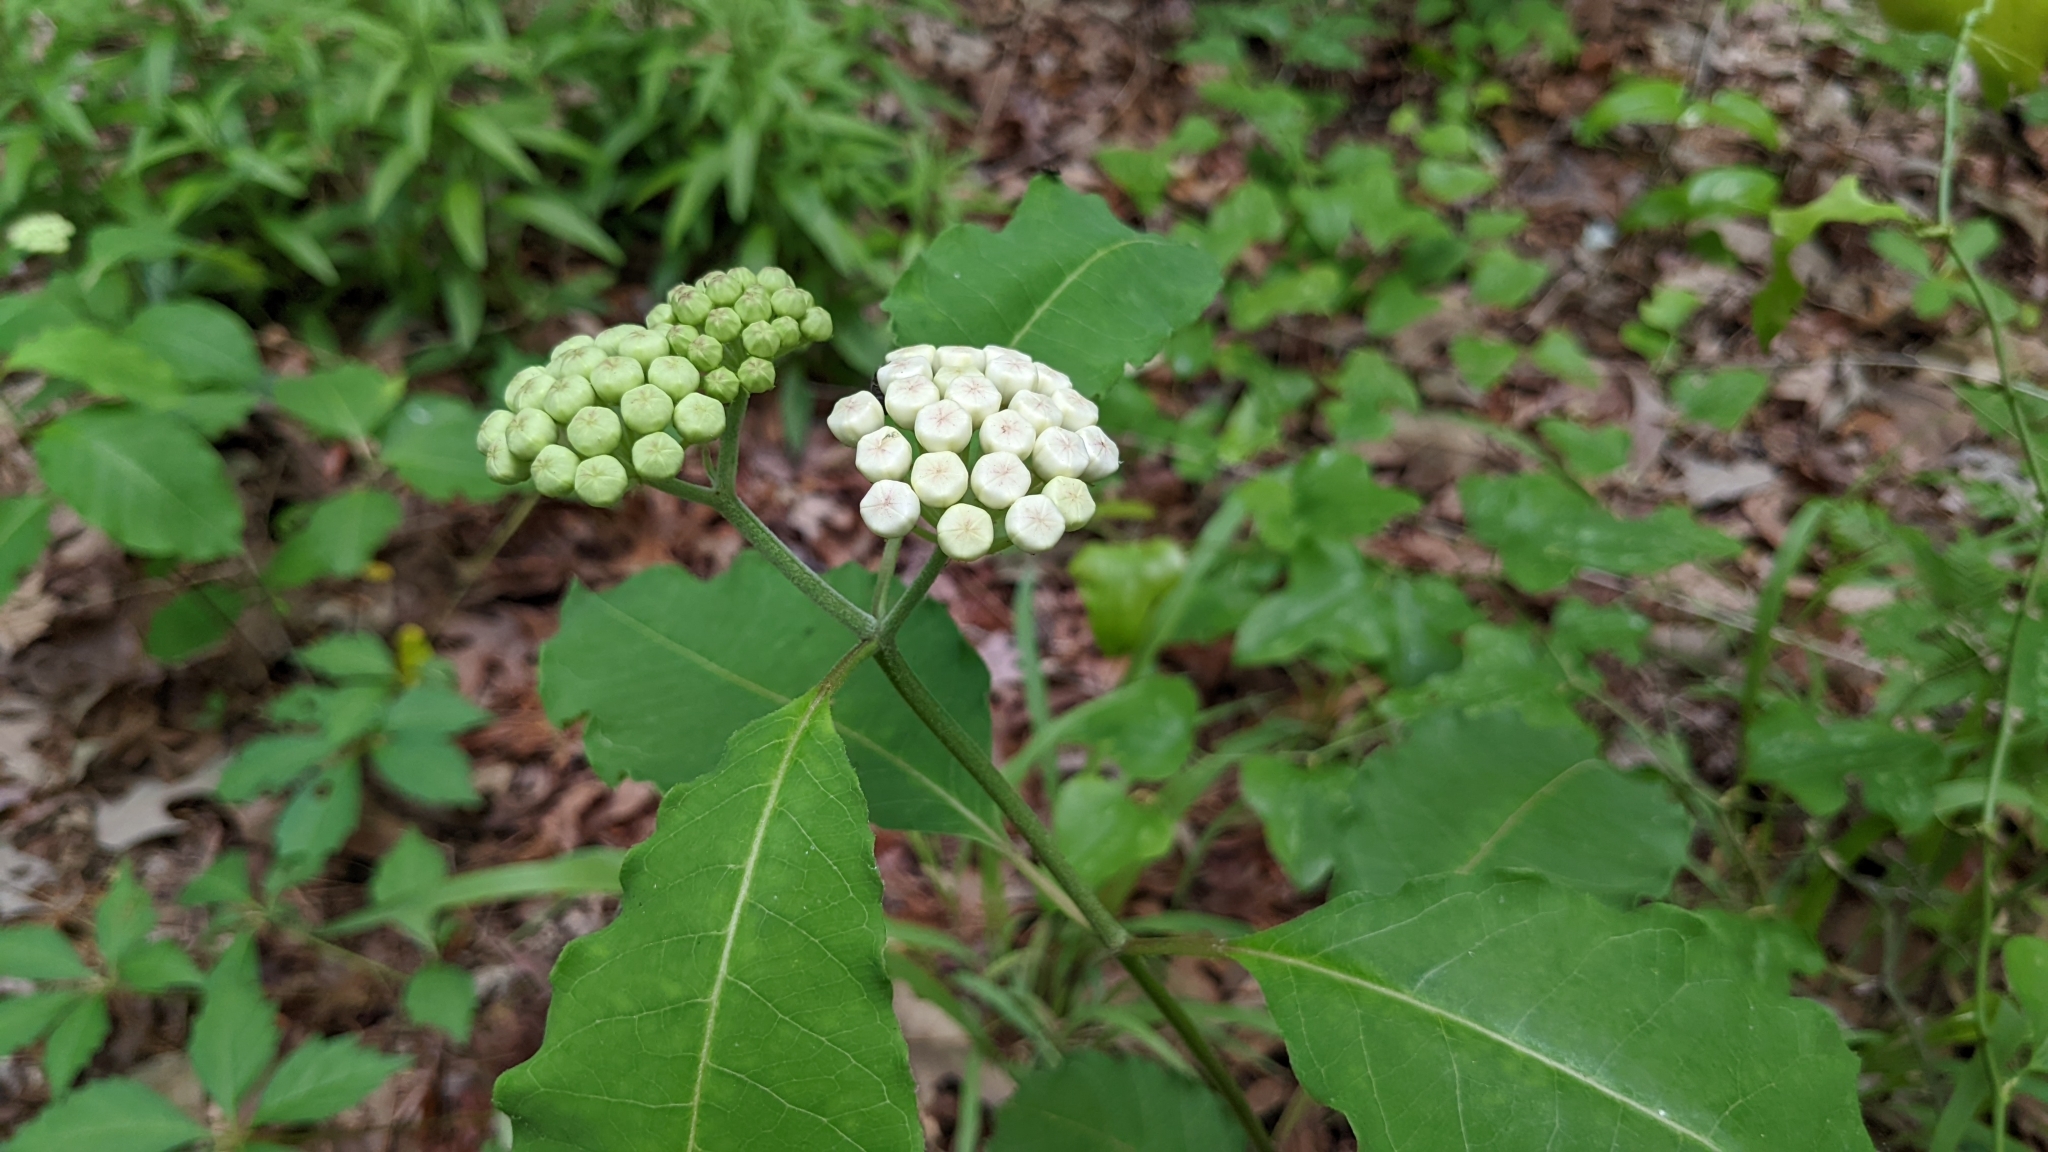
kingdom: Plantae
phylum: Tracheophyta
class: Magnoliopsida
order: Gentianales
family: Apocynaceae
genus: Asclepias
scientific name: Asclepias variegata
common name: Variegated milkweed
